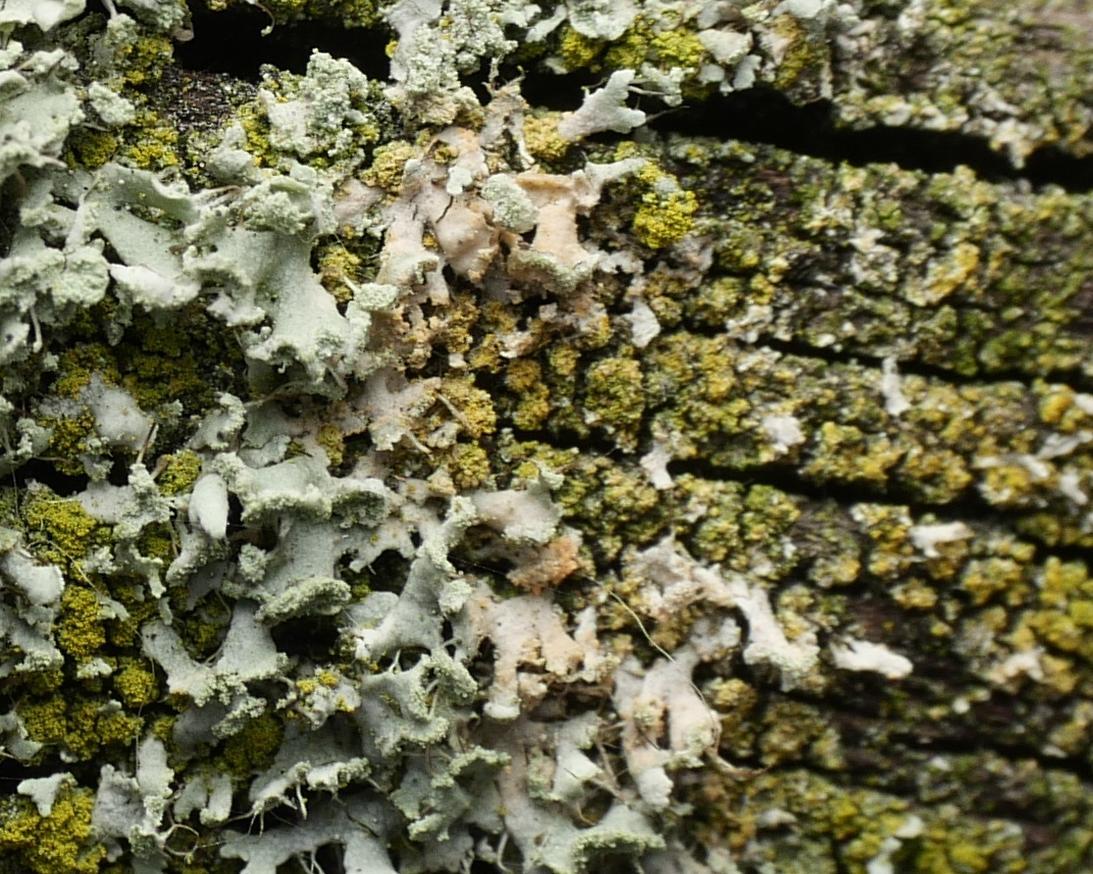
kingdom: Fungi
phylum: Basidiomycota
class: Agaricomycetes
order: Corticiales
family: Corticiaceae
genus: Erythricium
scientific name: Erythricium aurantiacum
